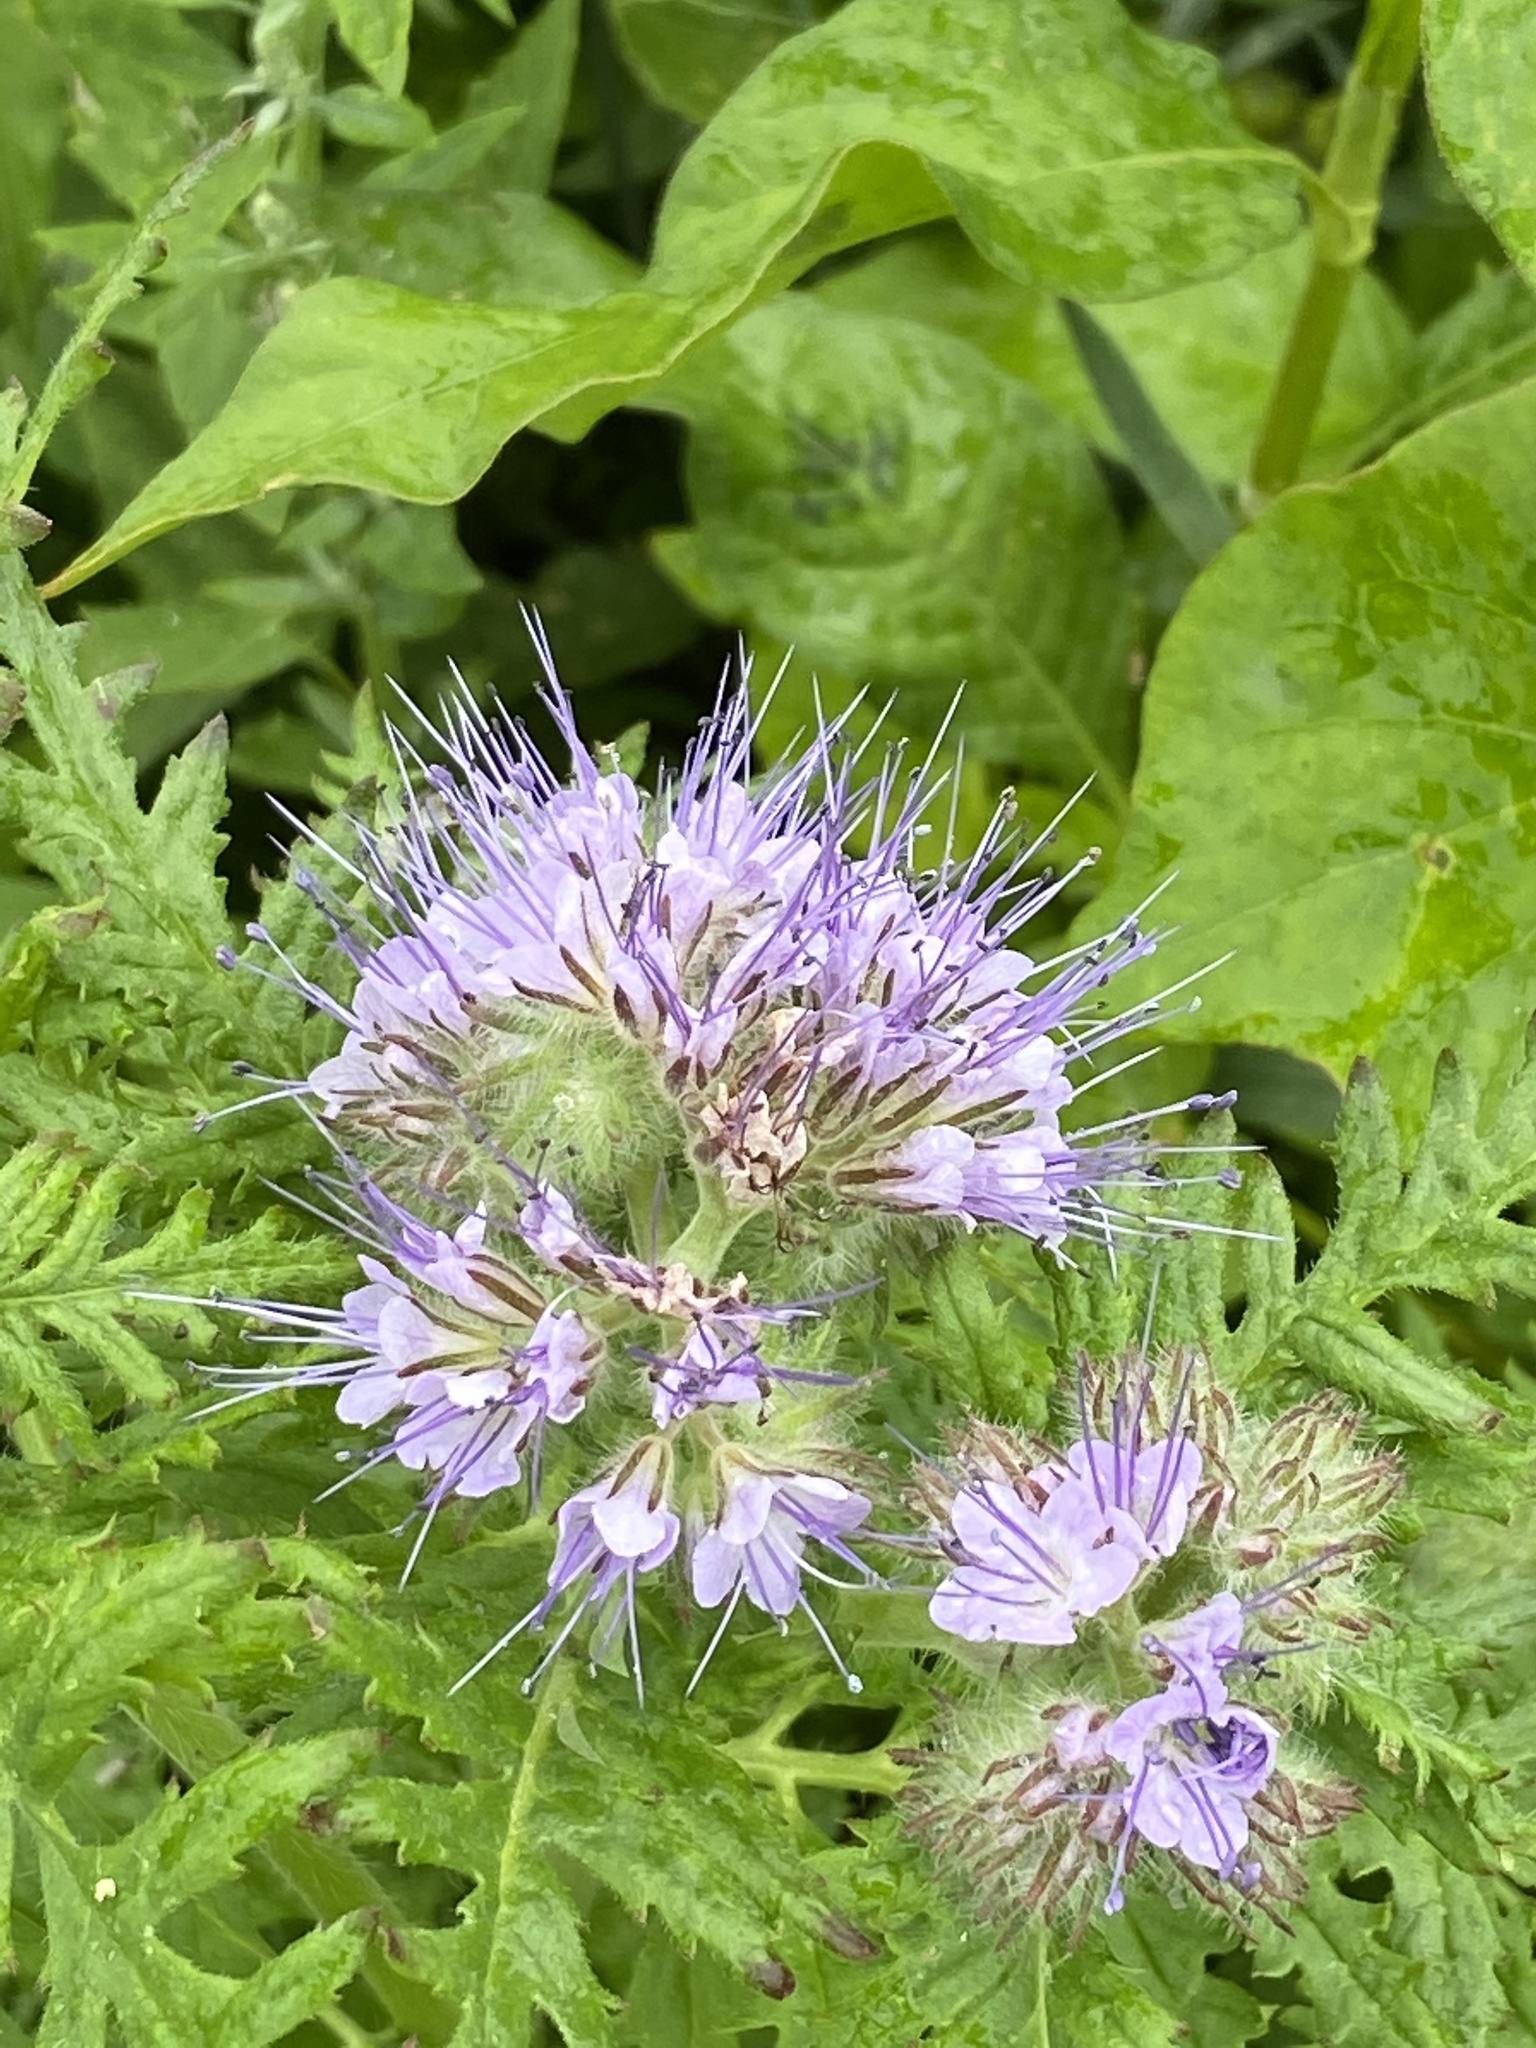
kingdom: Plantae
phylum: Tracheophyta
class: Magnoliopsida
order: Boraginales
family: Hydrophyllaceae
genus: Phacelia
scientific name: Phacelia tanacetifolia
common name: Phacelia
